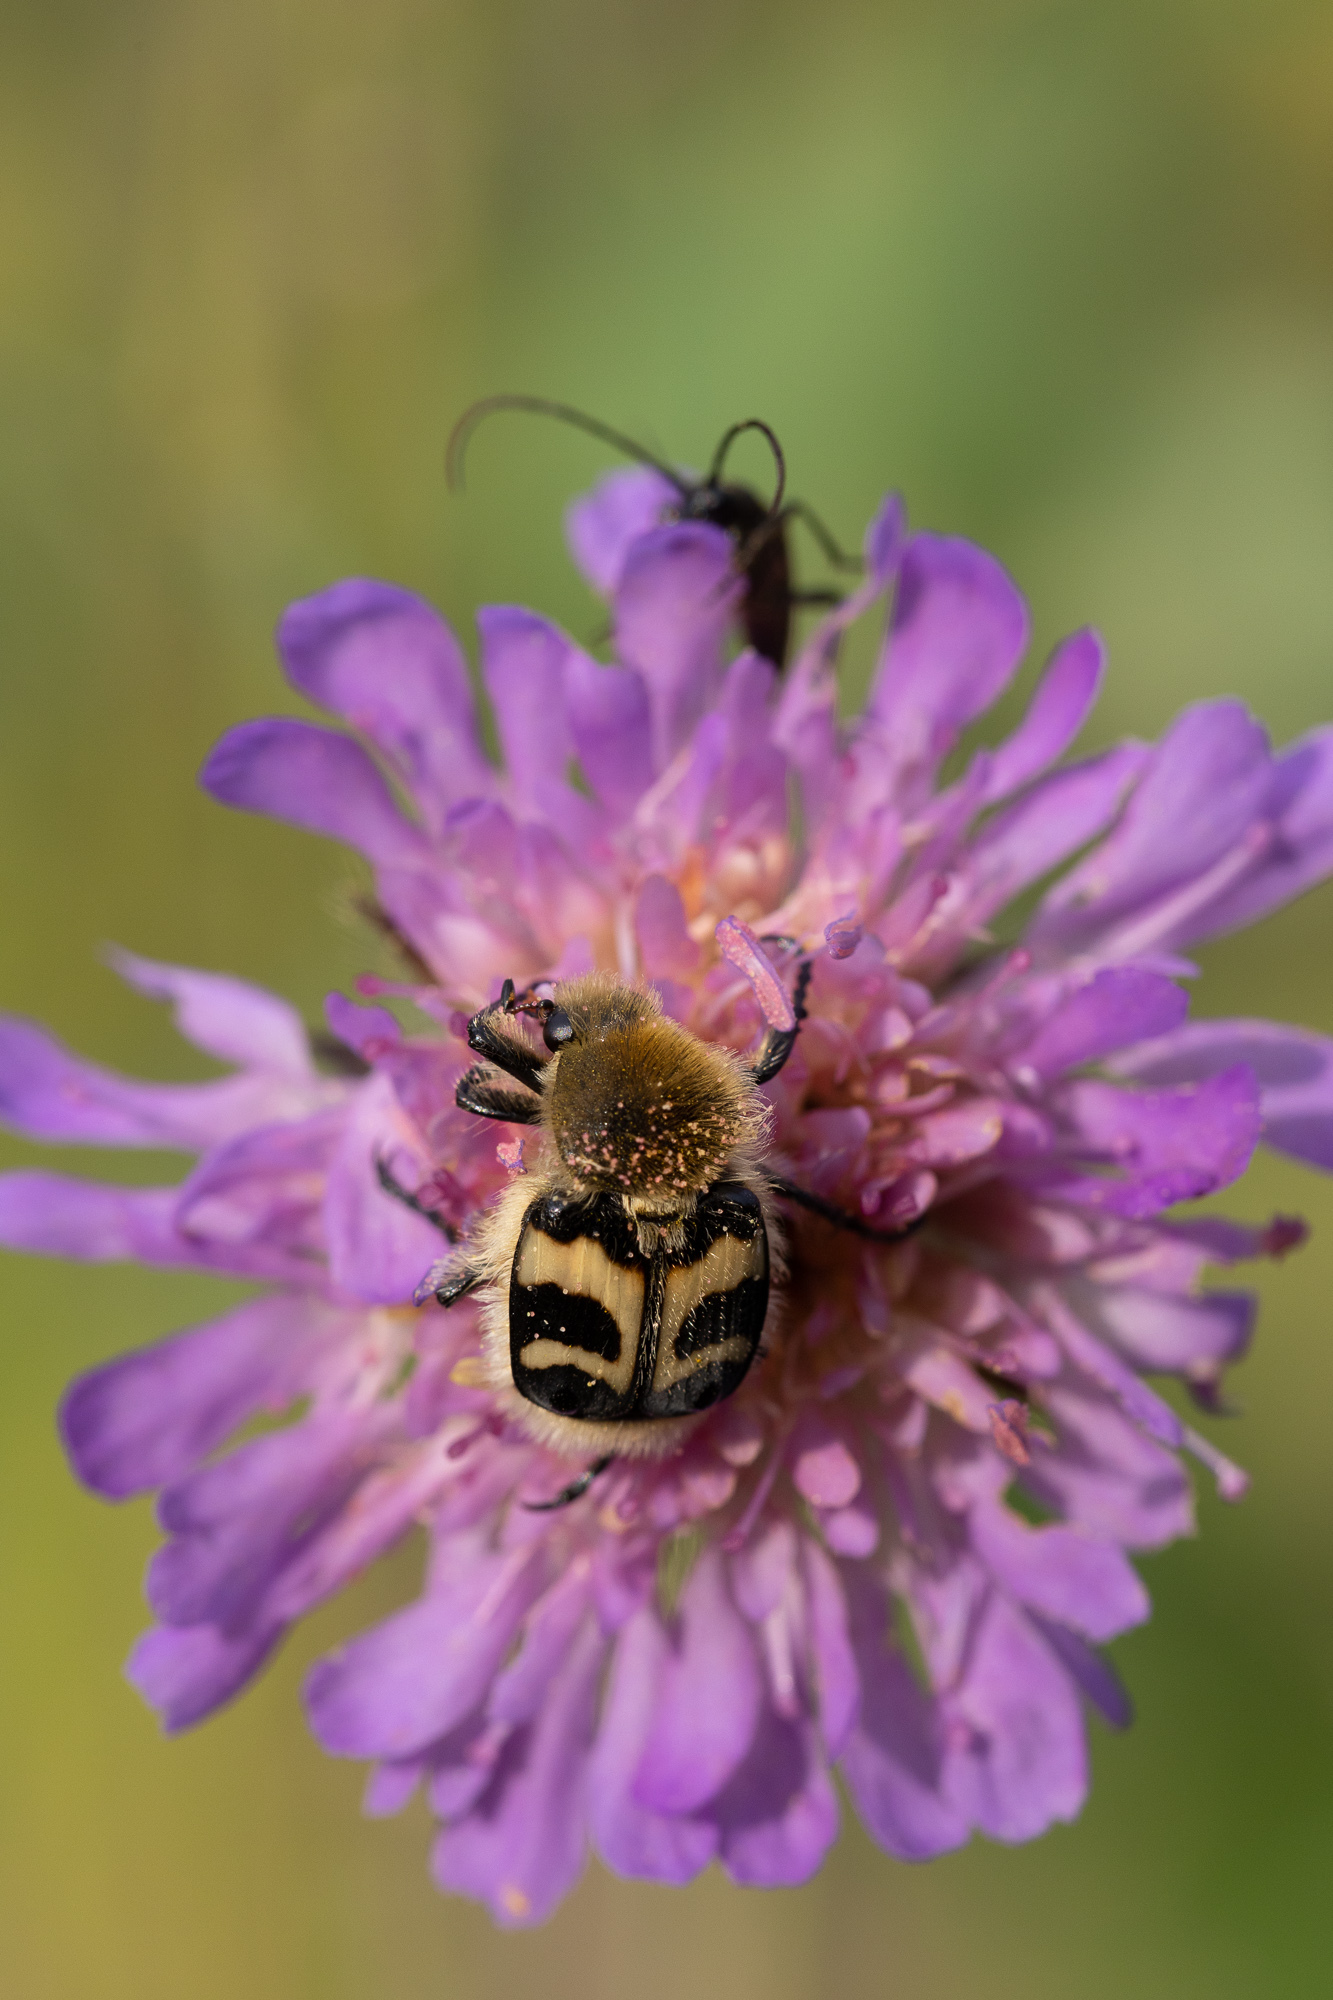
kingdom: Animalia
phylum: Arthropoda
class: Insecta
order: Coleoptera
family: Scarabaeidae
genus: Trichius
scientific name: Trichius fasciatus
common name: Bee beetle
